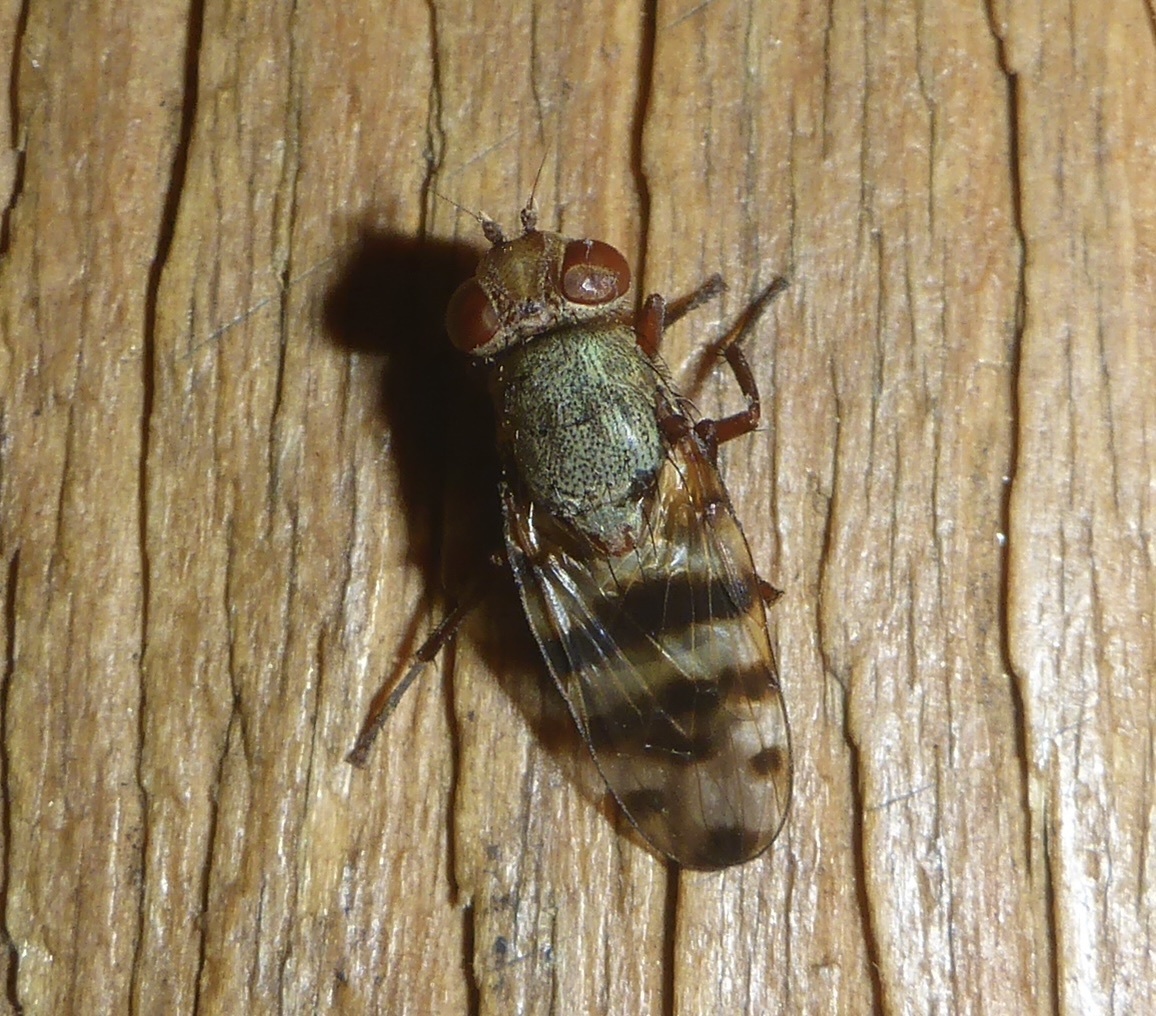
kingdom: Animalia
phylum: Arthropoda
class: Insecta
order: Diptera
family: Ulidiidae
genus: Ceroxys
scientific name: Ceroxys latiusculus
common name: Picture-winged fly
